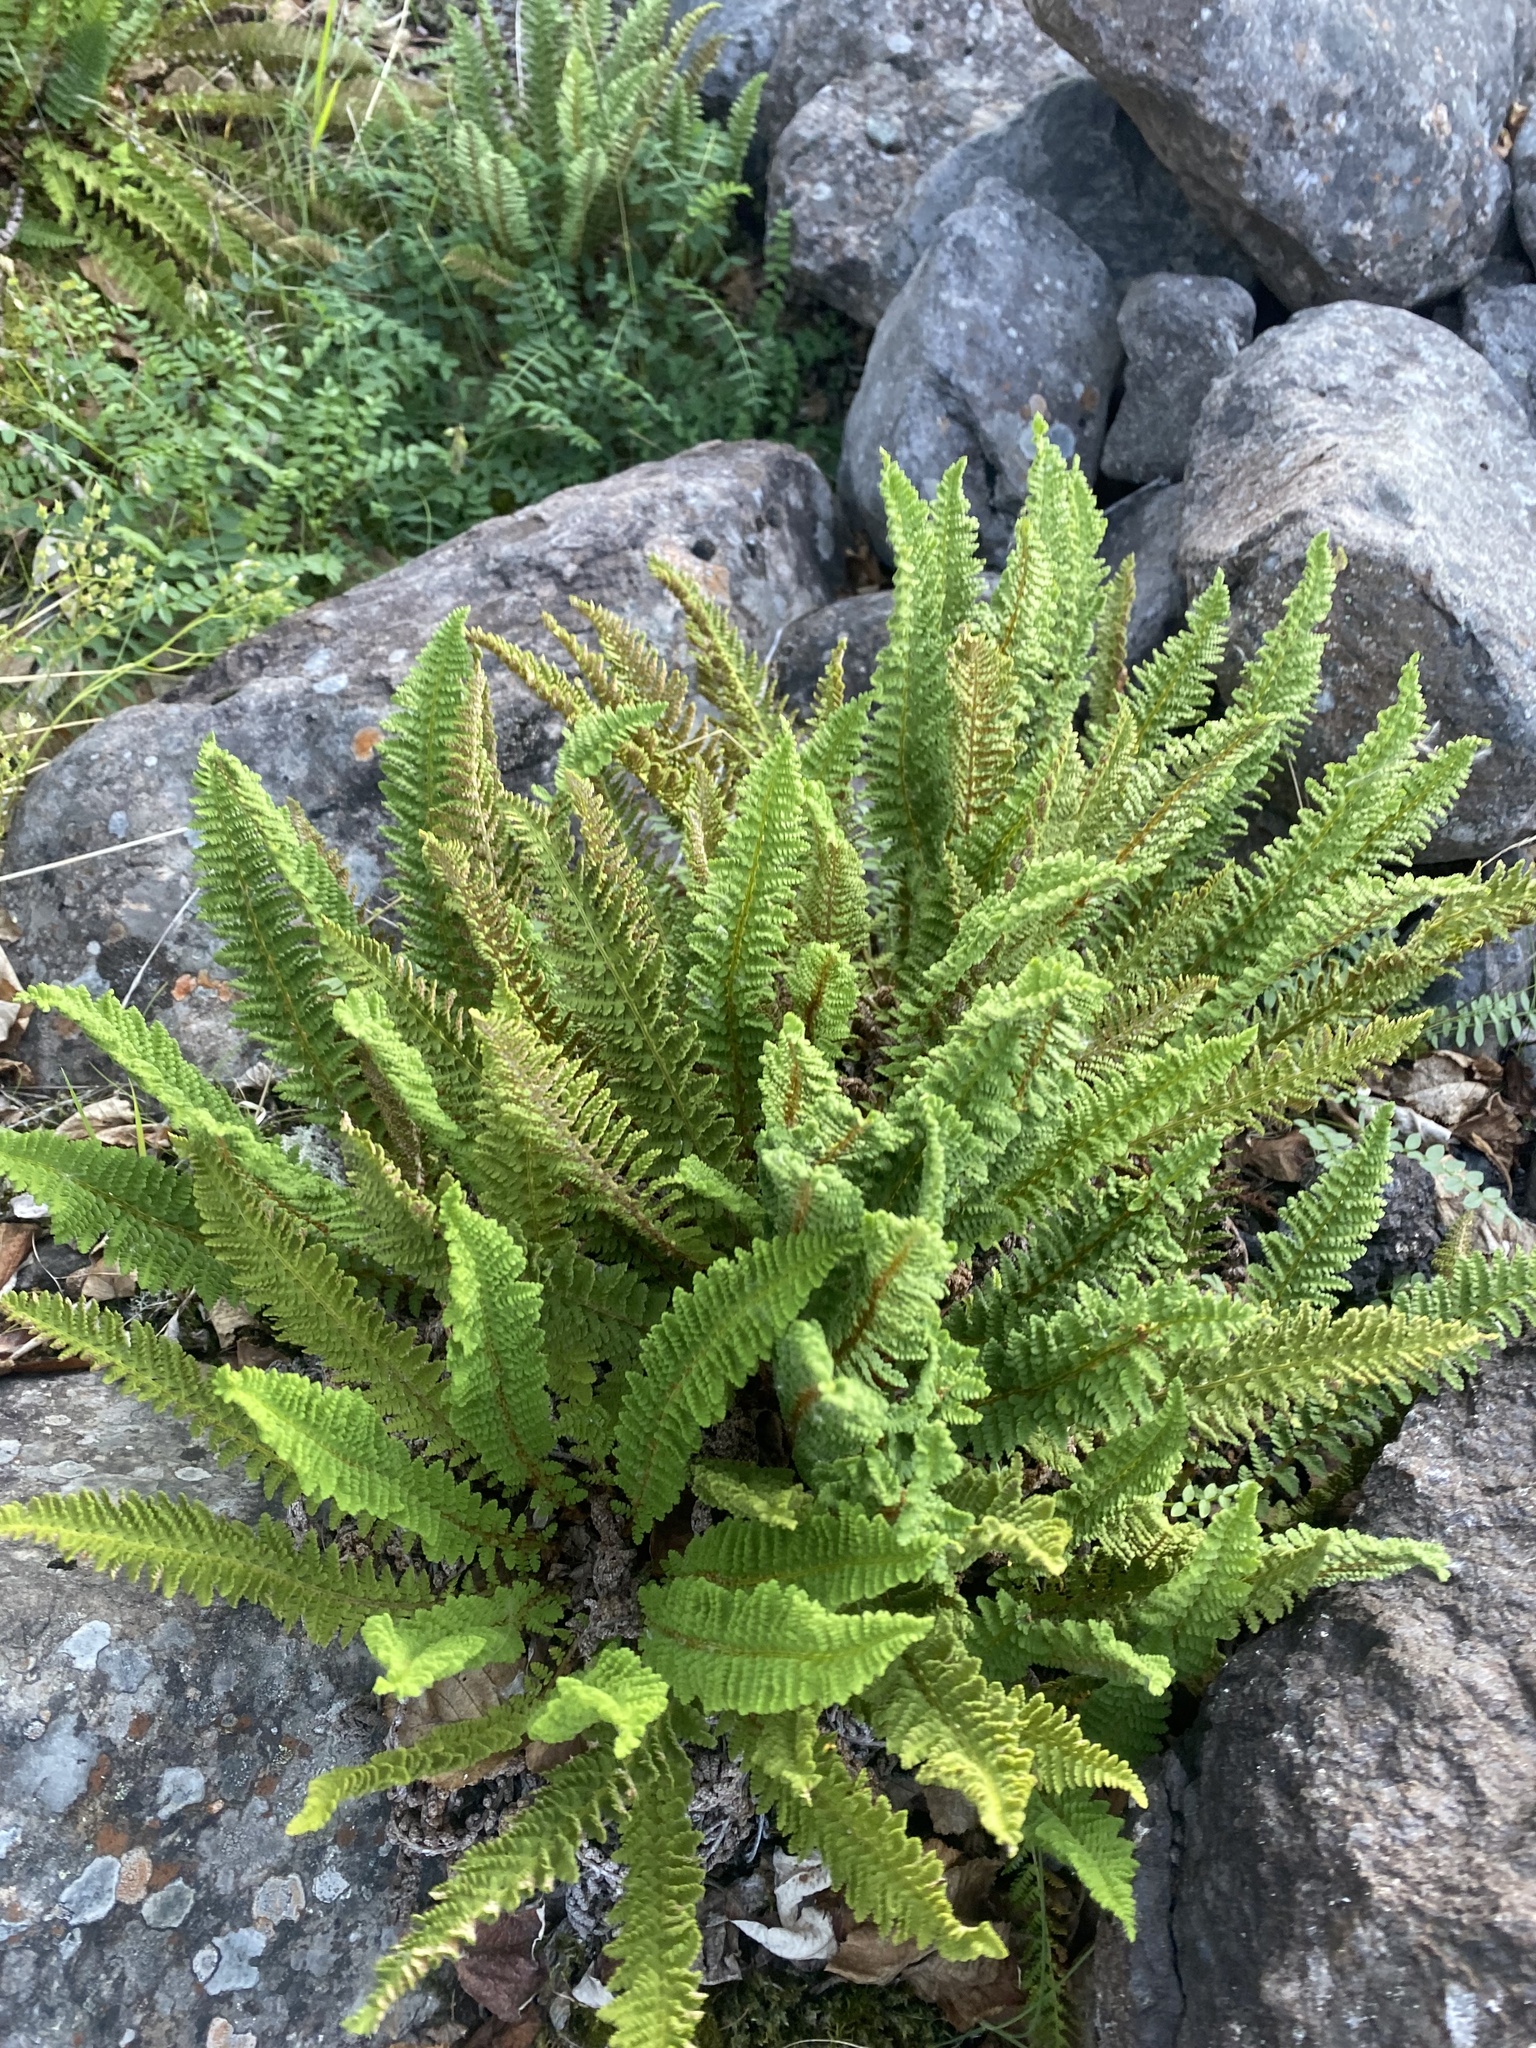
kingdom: Plantae
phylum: Tracheophyta
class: Polypodiopsida
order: Polypodiales
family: Dryopteridaceae
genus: Dryopteris
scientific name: Dryopteris fragrans
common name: Fragrant wood fern
